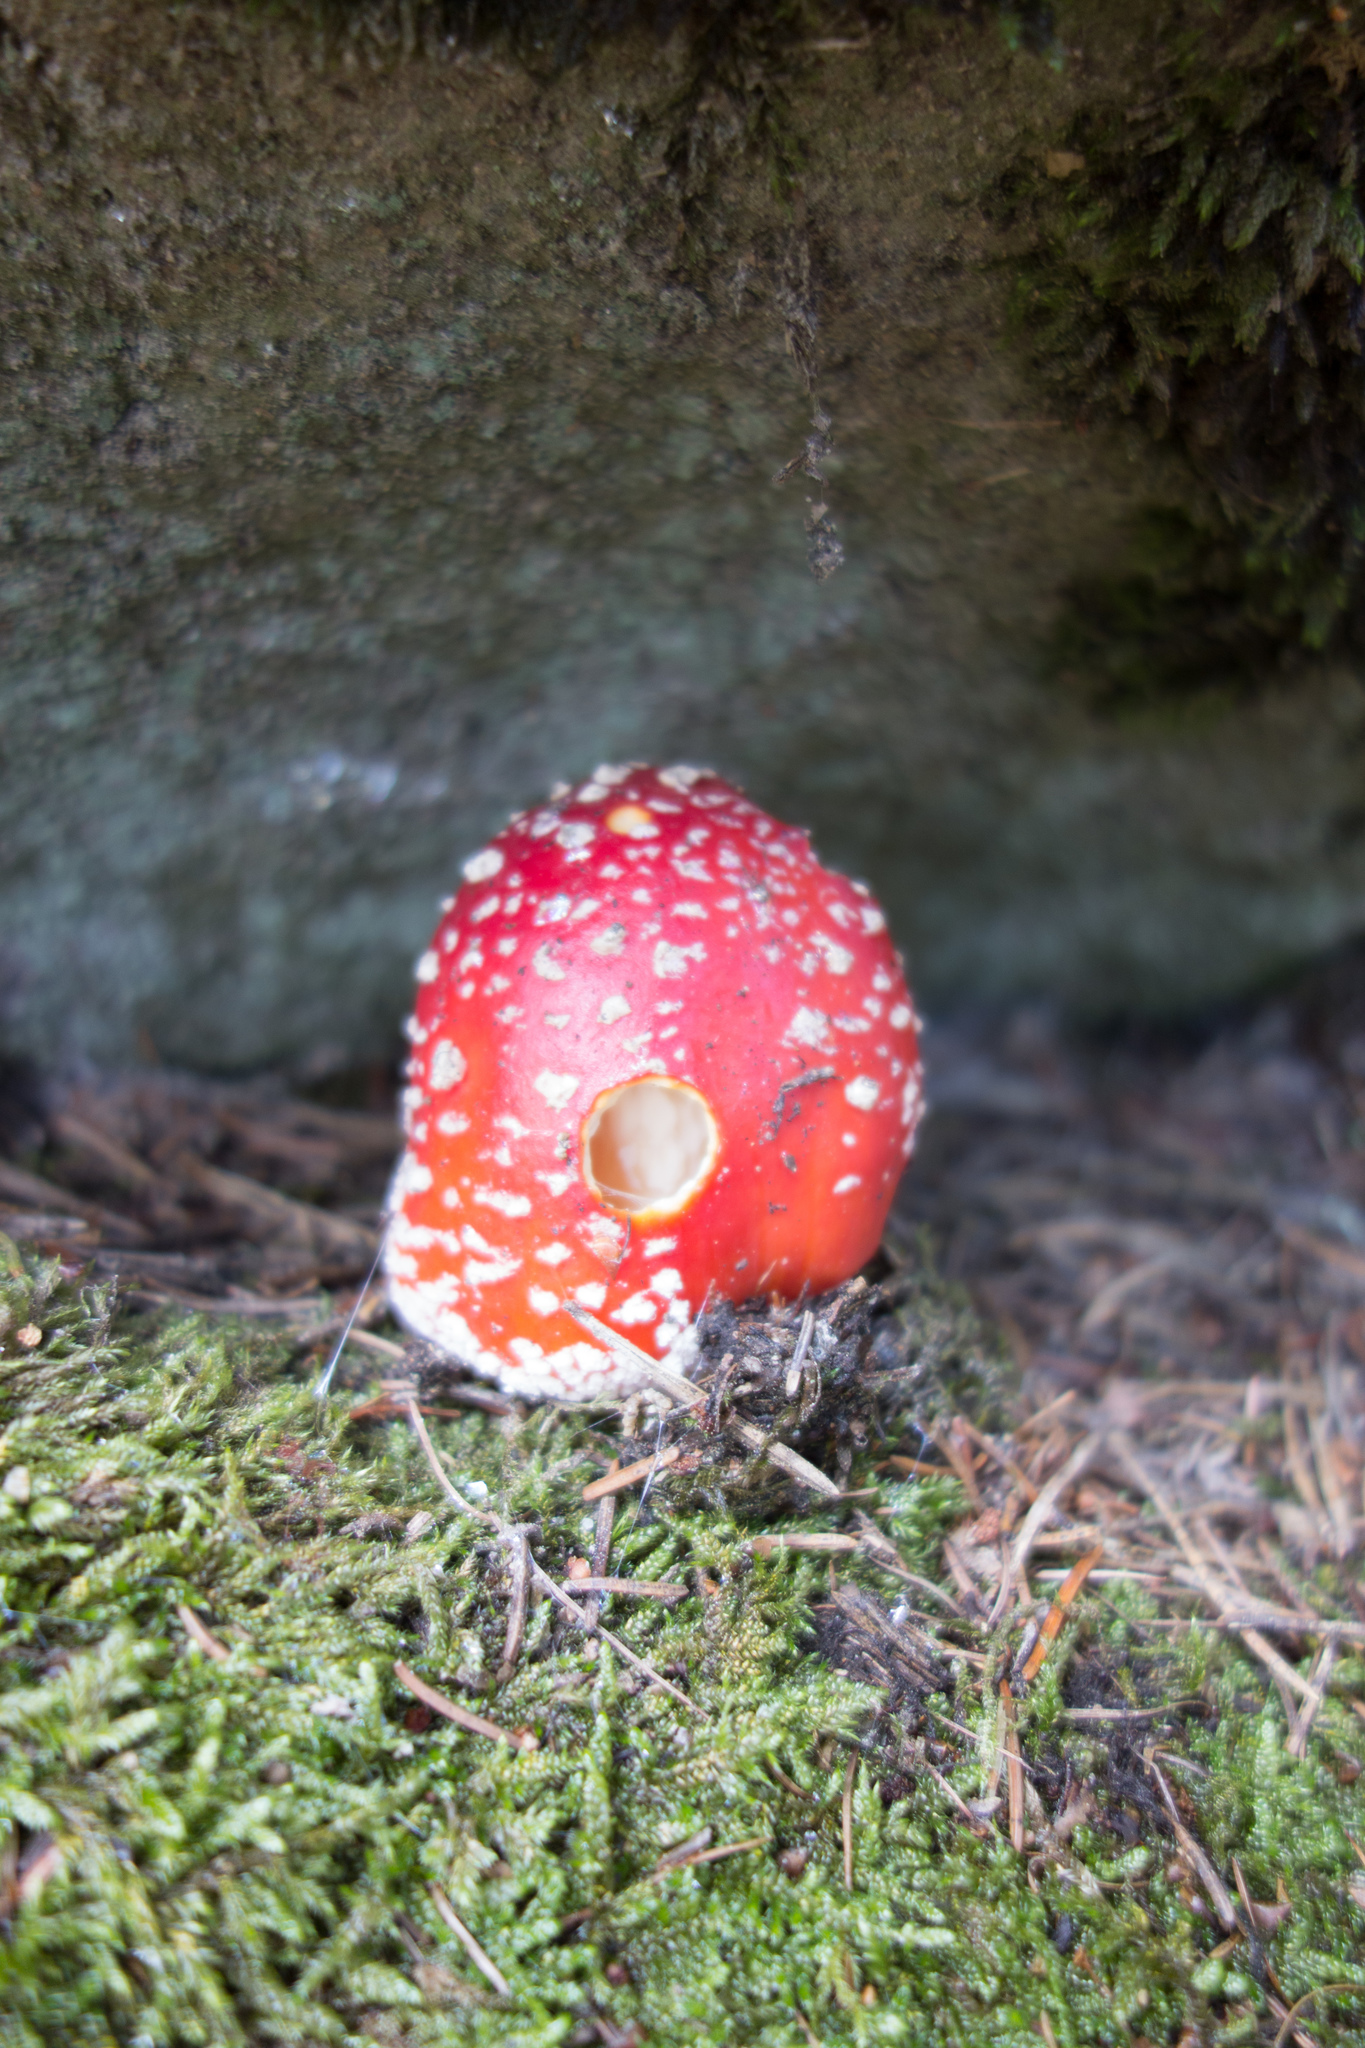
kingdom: Fungi
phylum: Basidiomycota
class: Agaricomycetes
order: Agaricales
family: Amanitaceae
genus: Amanita
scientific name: Amanita muscaria
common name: Fly agaric
